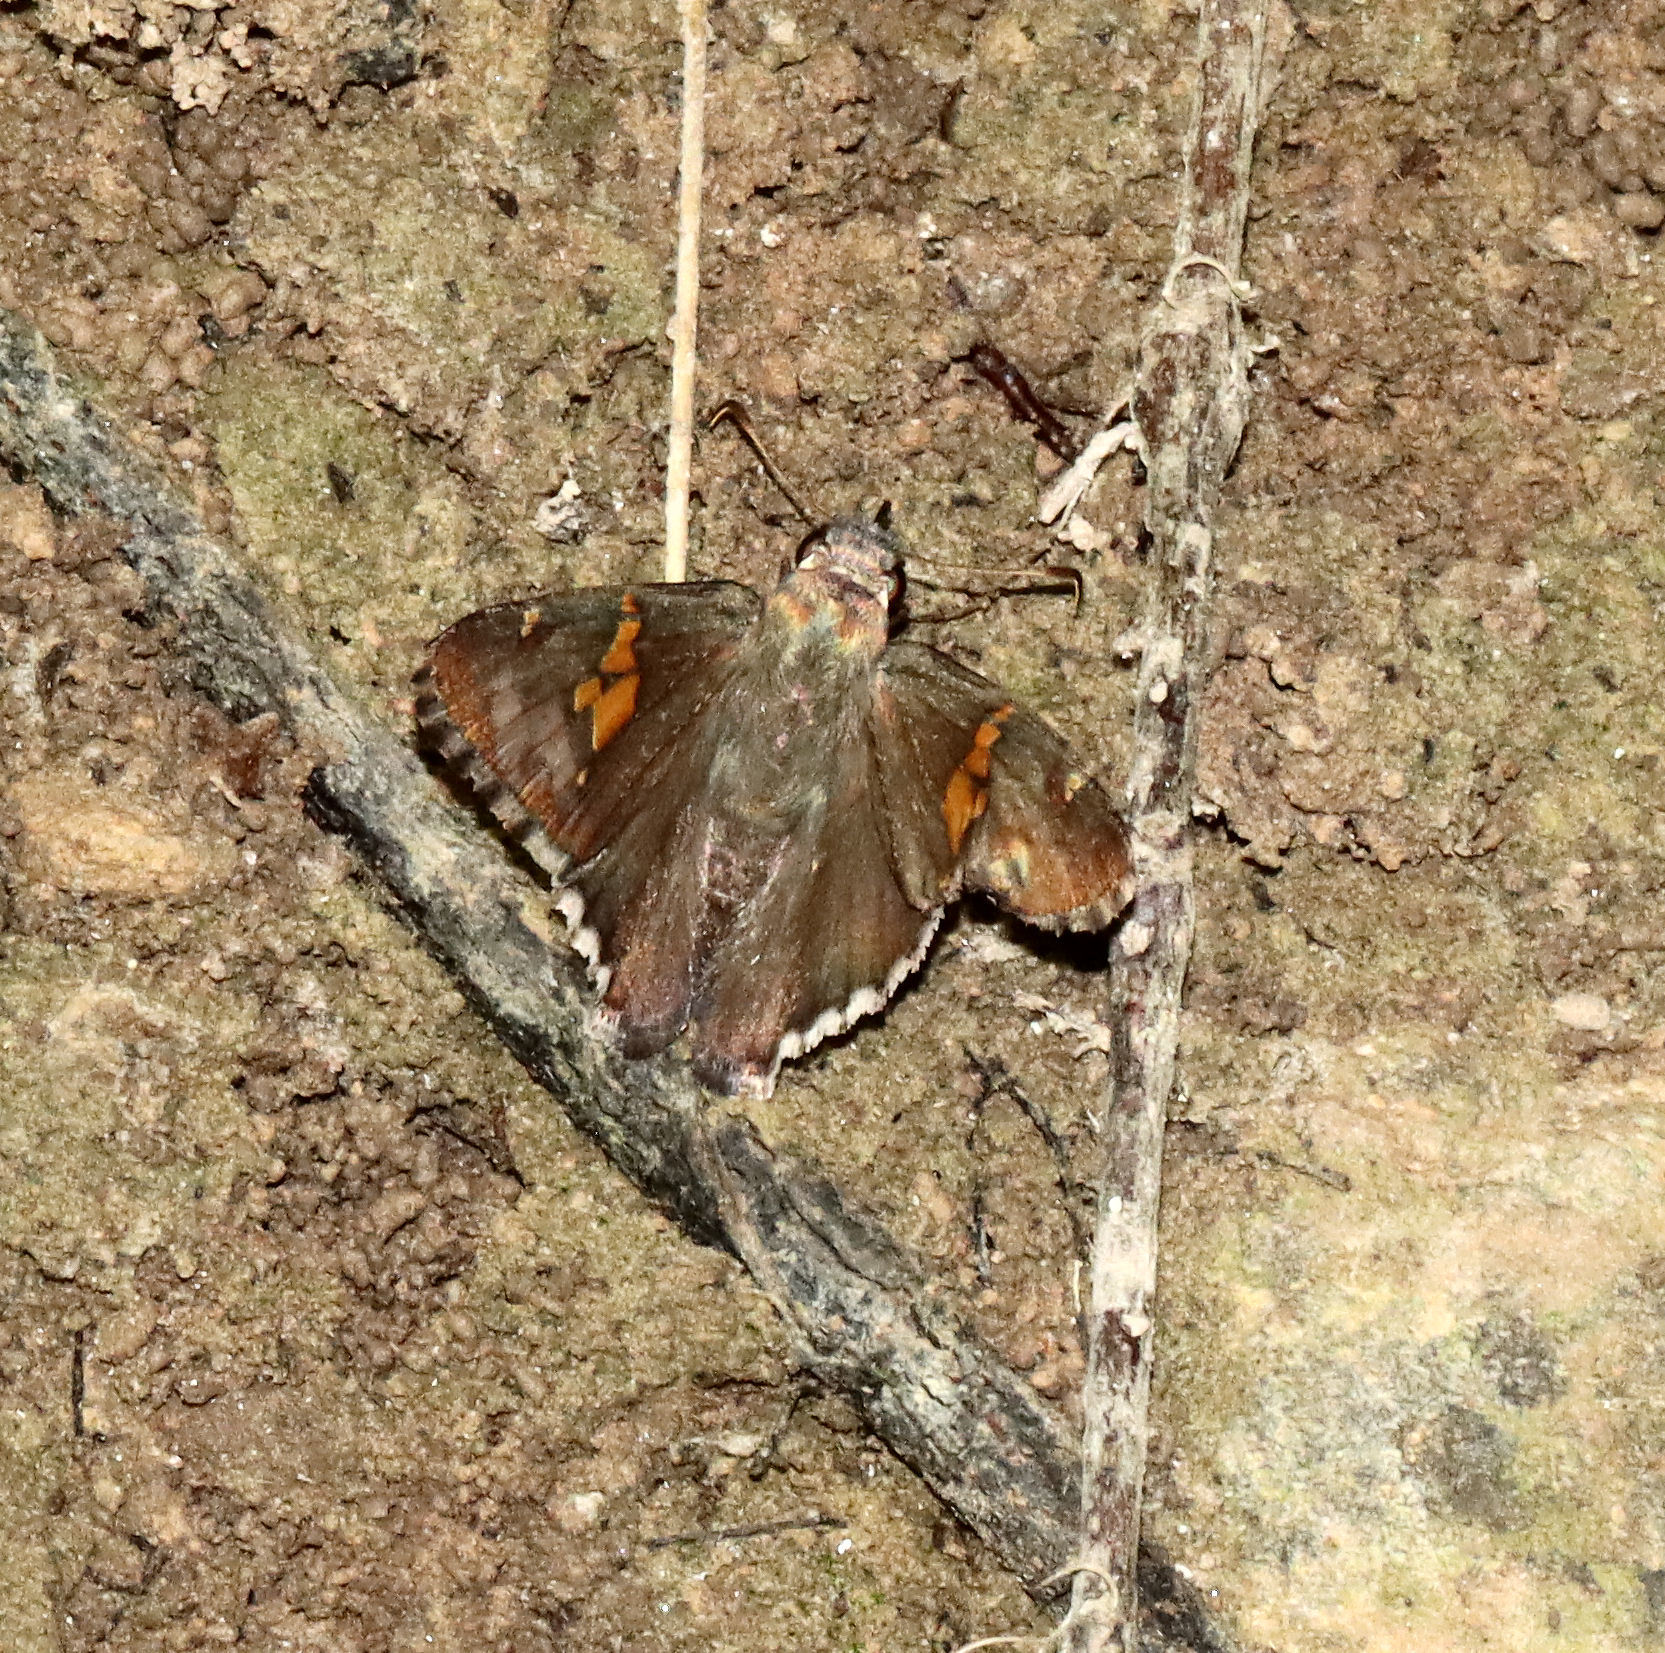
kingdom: Animalia
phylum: Arthropoda
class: Insecta
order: Lepidoptera
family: Hesperiidae
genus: Thorybes
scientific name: Thorybes lyciades
